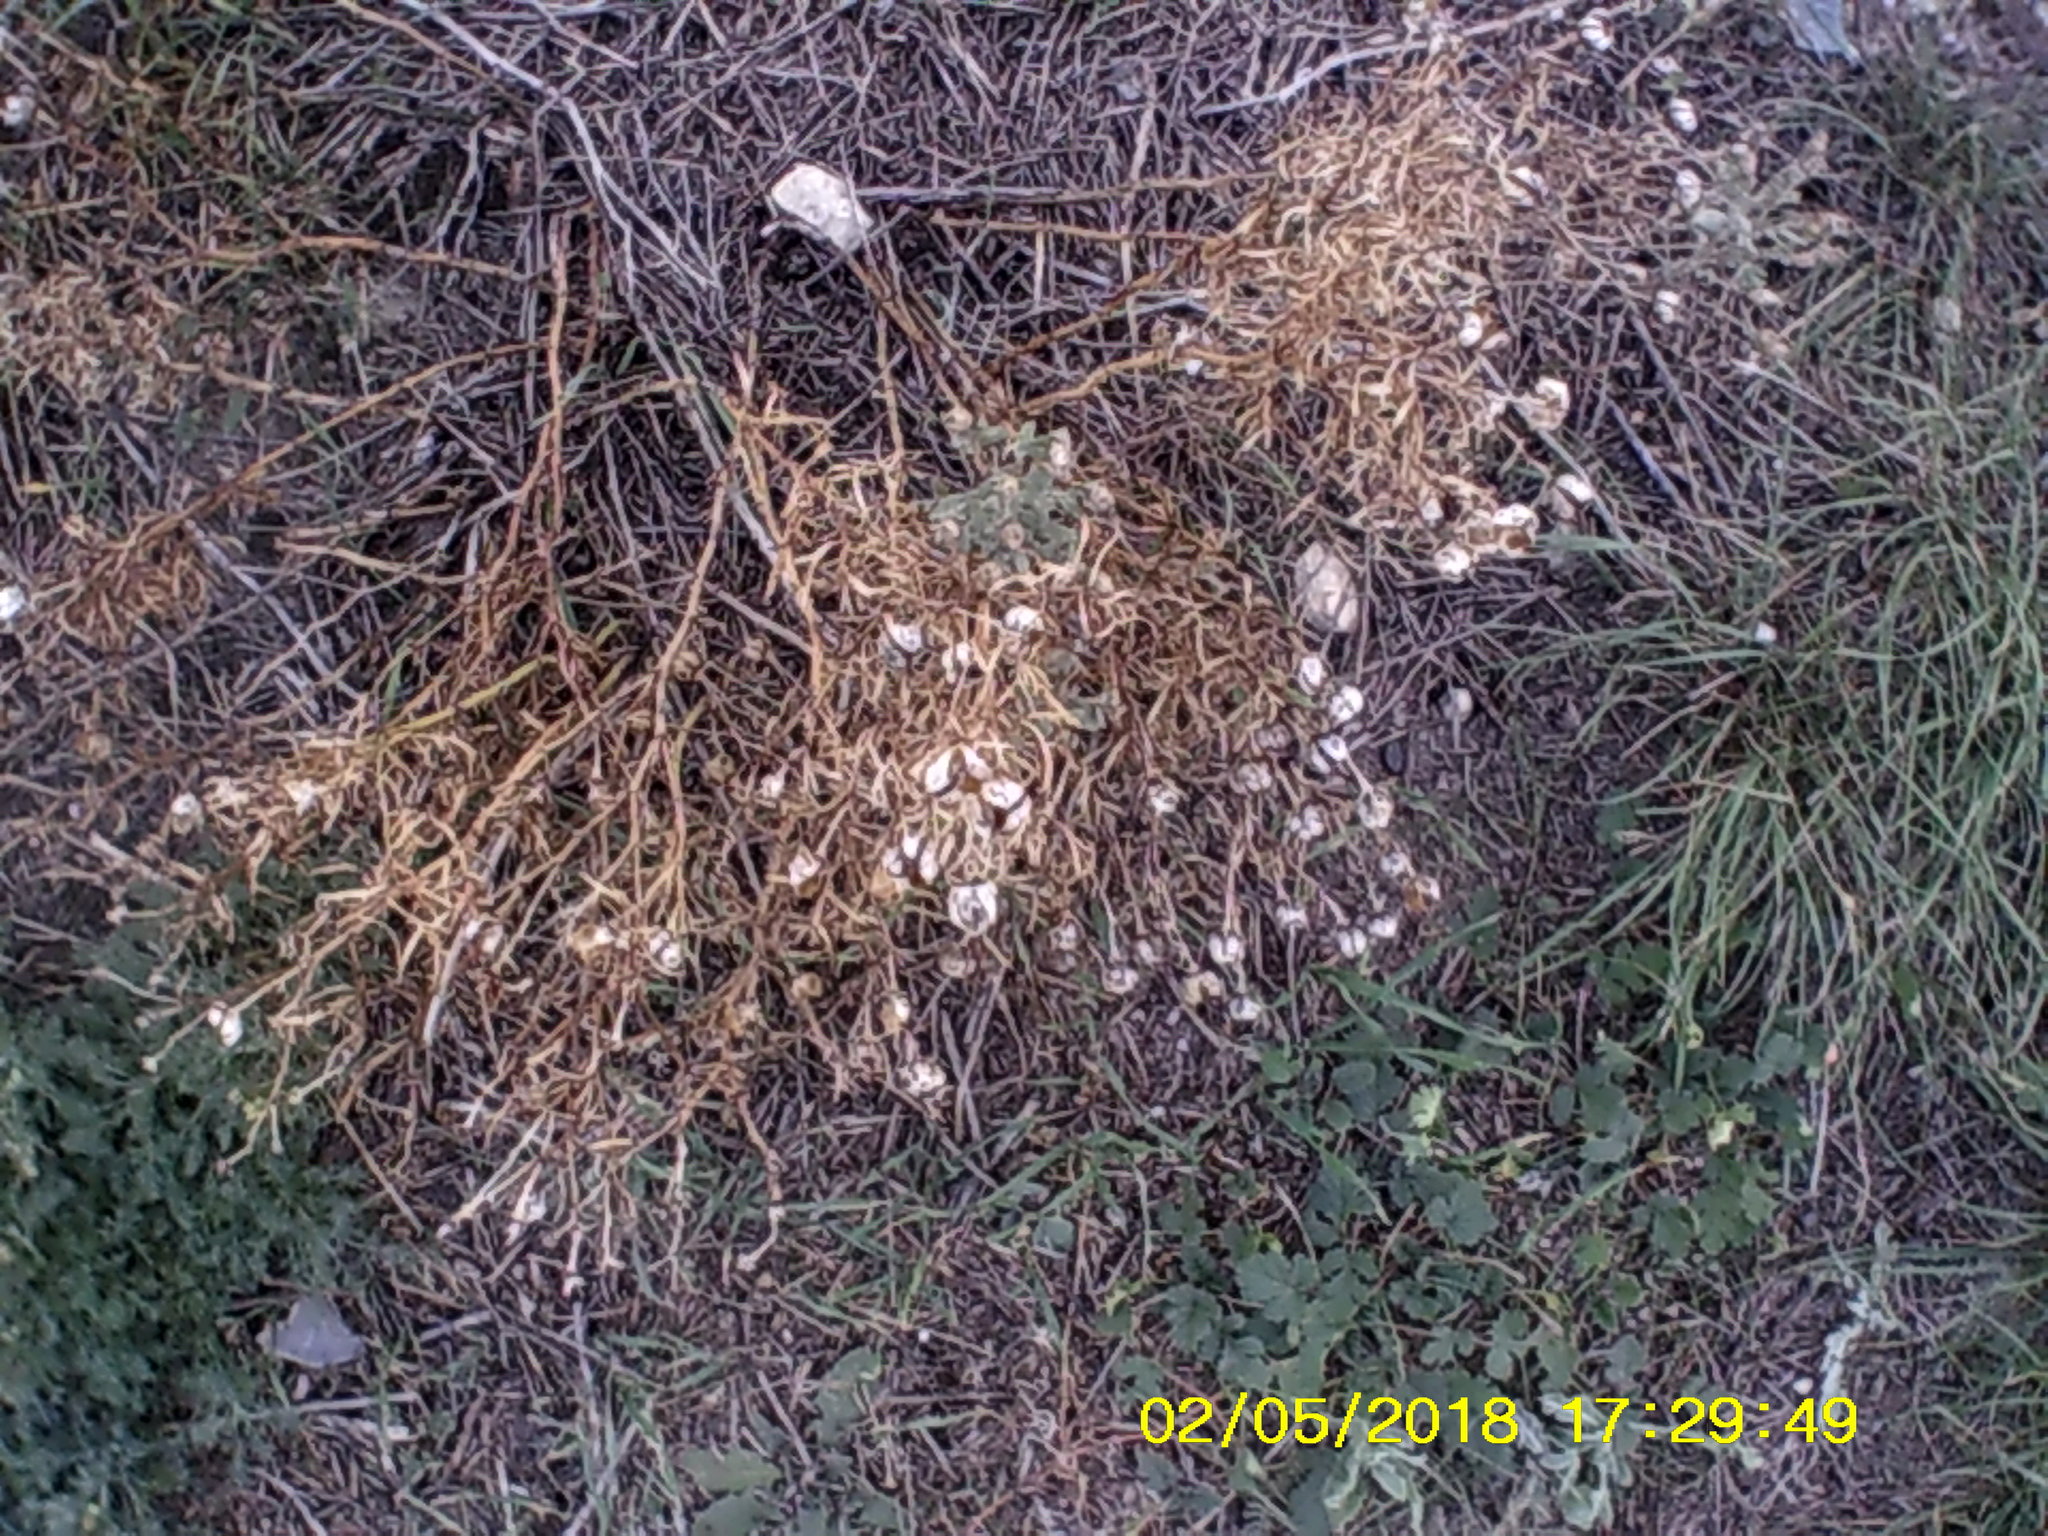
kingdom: Plantae
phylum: Tracheophyta
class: Magnoliopsida
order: Sapindales
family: Tetradiclidaceae
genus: Peganum
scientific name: Peganum harmala
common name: Harmal peganum
